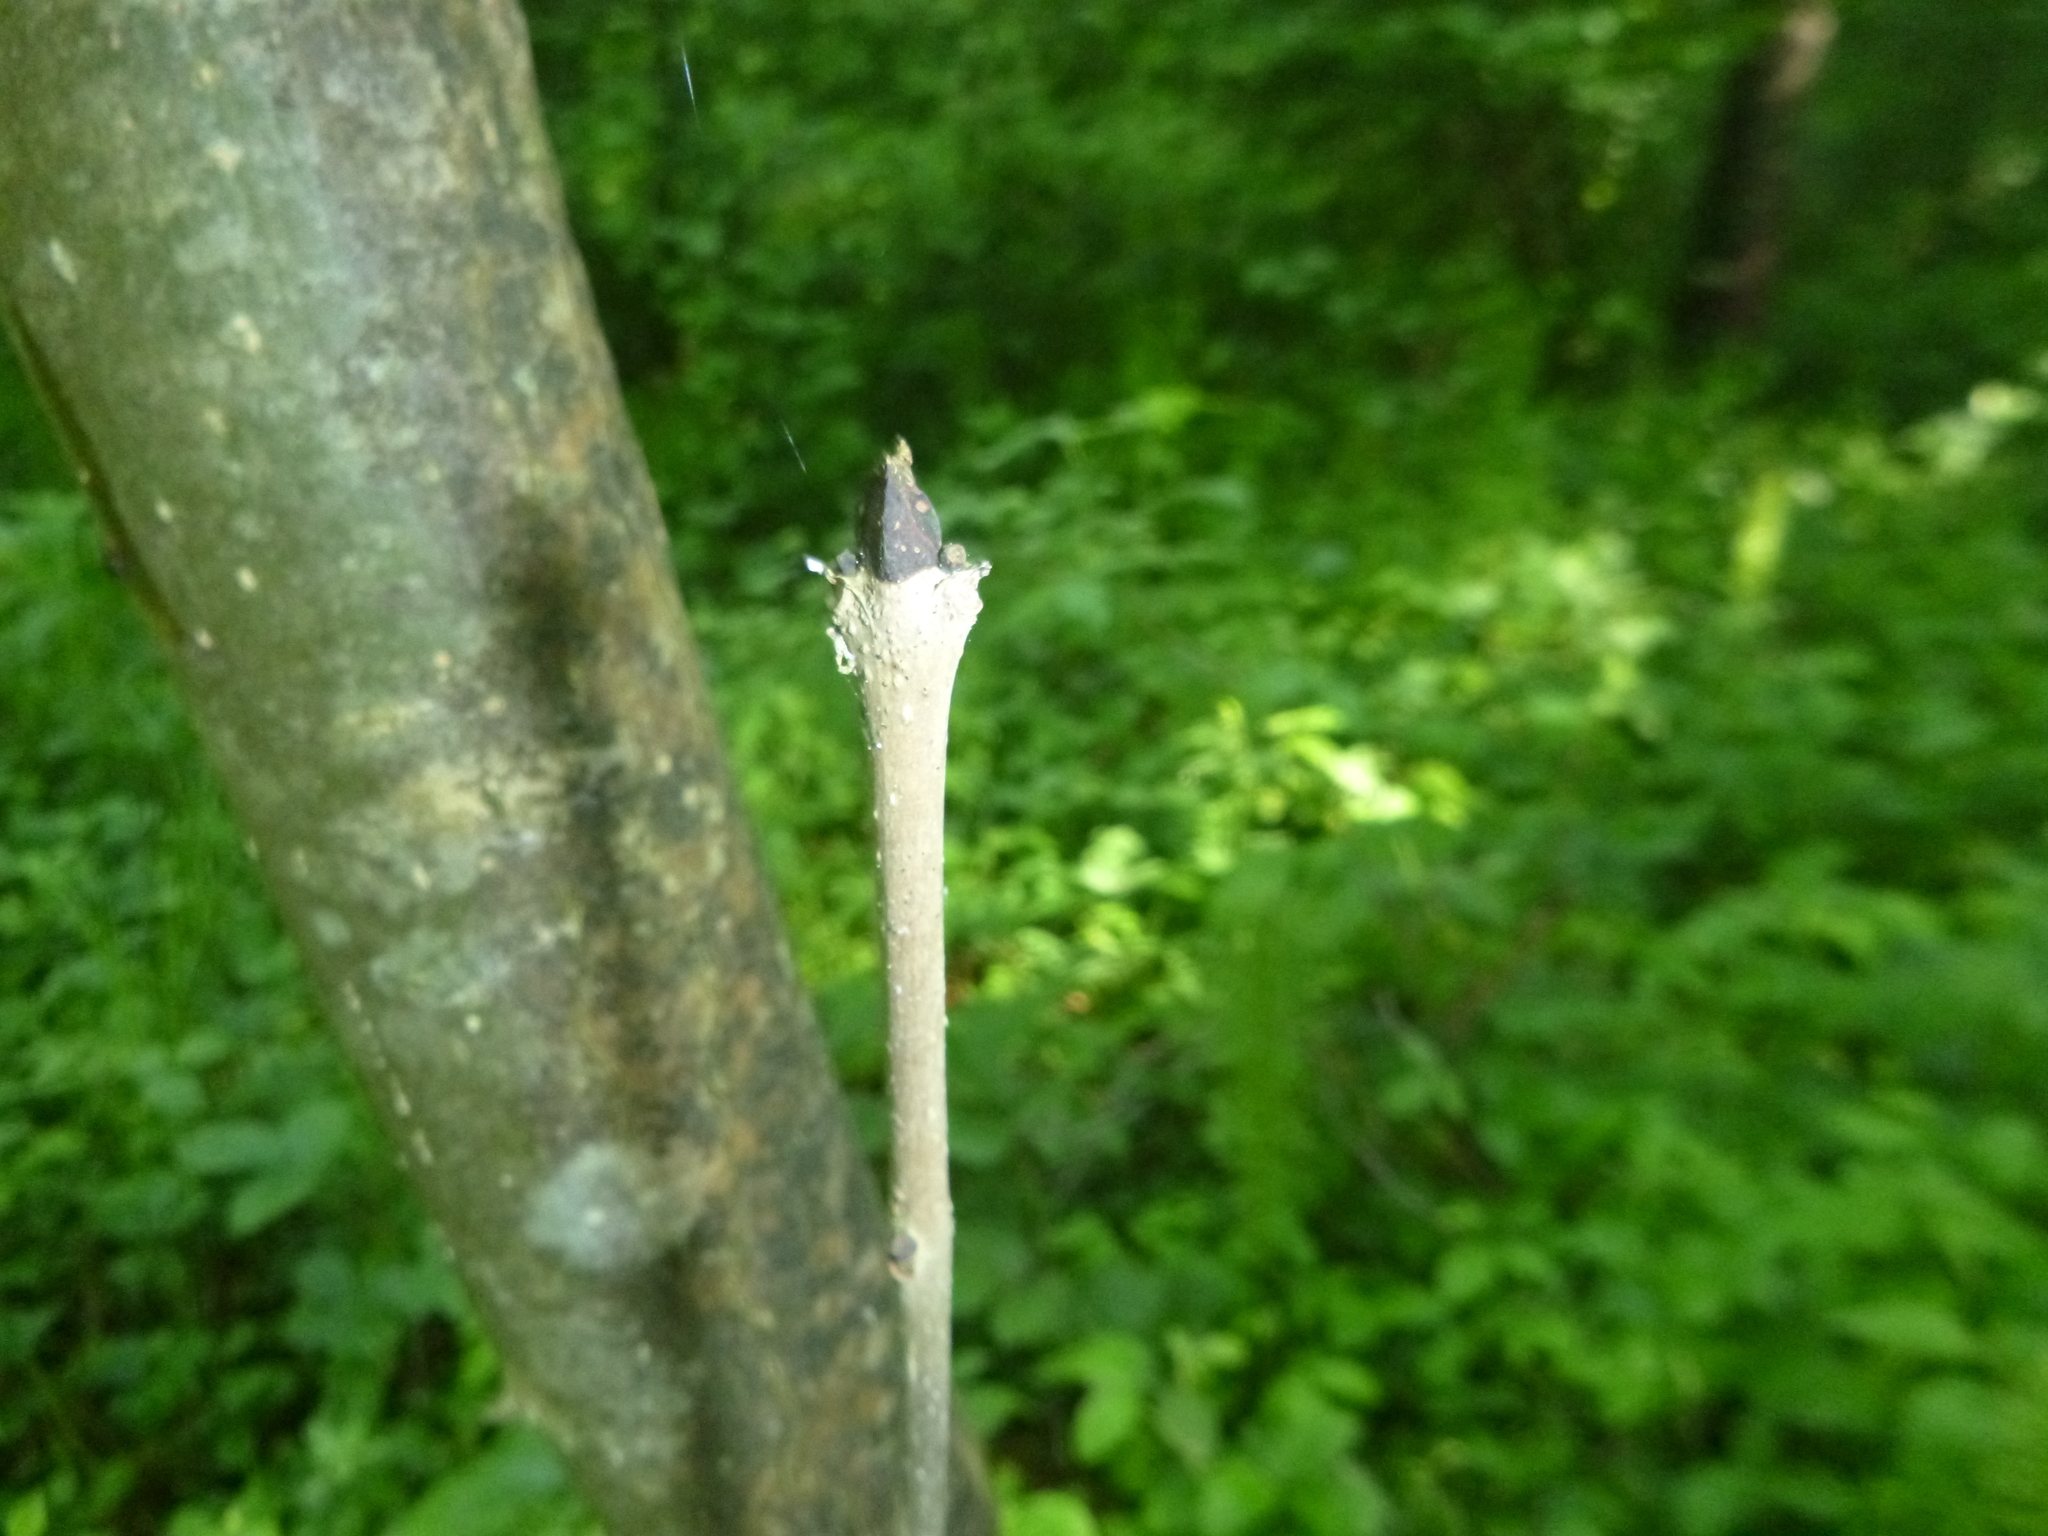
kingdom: Plantae
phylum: Tracheophyta
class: Magnoliopsida
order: Lamiales
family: Oleaceae
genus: Fraxinus
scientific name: Fraxinus excelsior
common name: European ash
